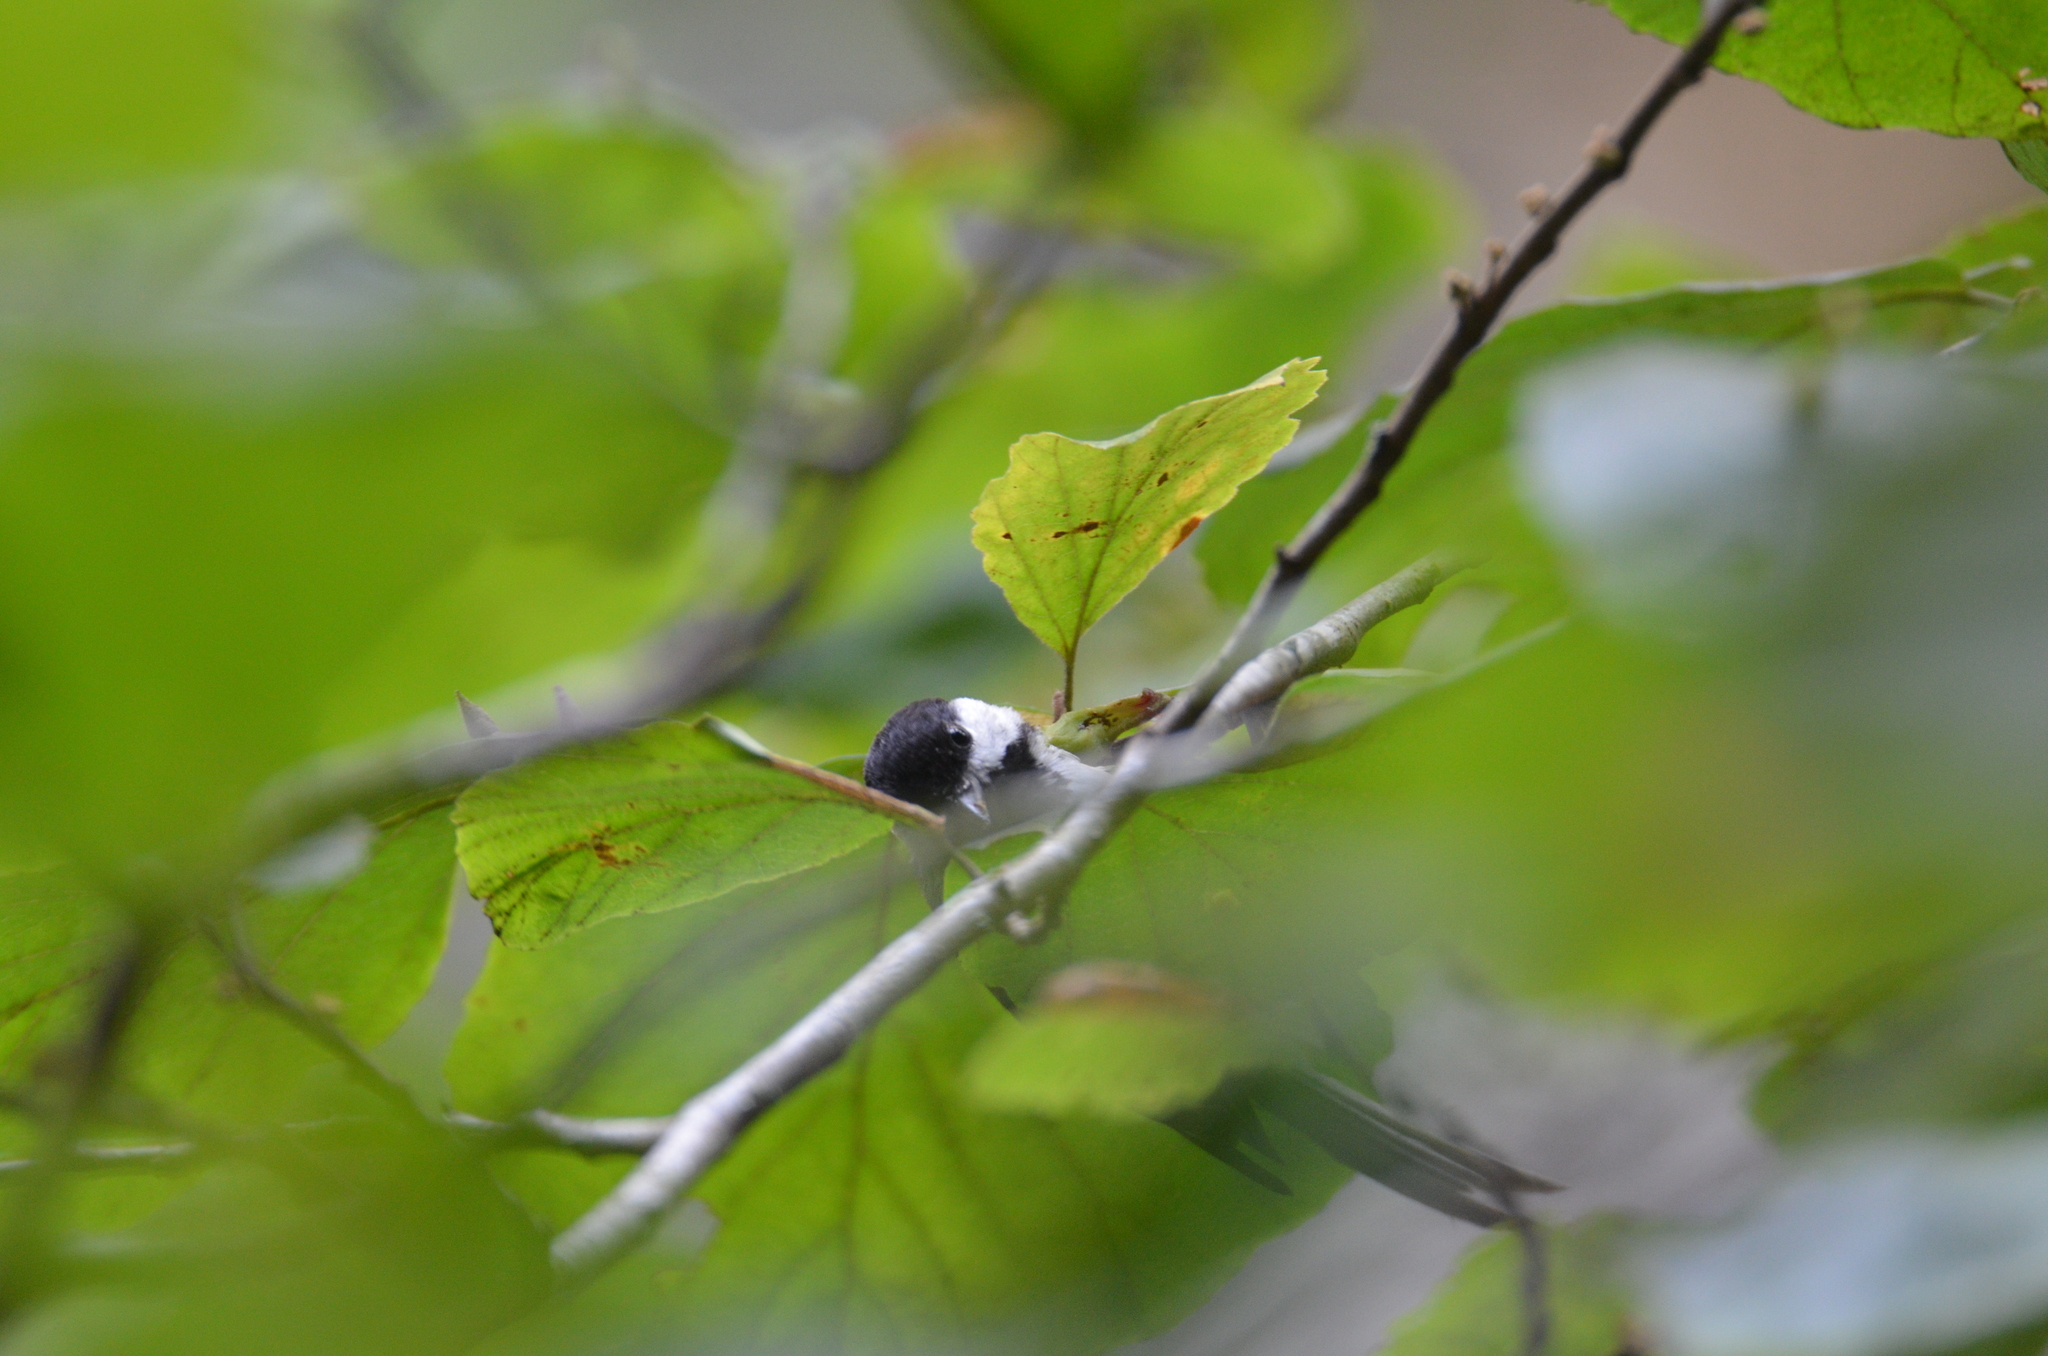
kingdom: Animalia
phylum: Chordata
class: Aves
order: Passeriformes
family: Paridae
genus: Poecile
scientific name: Poecile carolinensis
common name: Carolina chickadee
